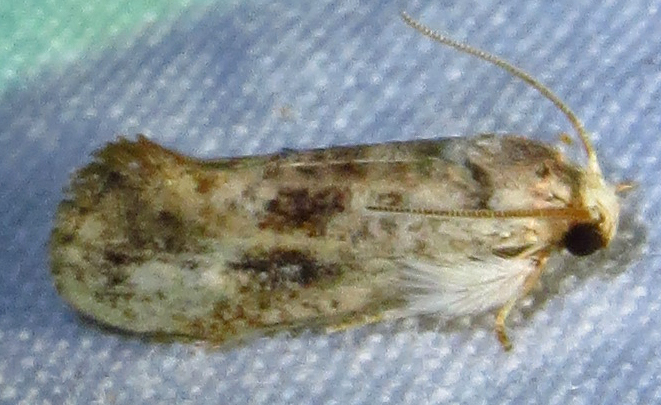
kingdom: Animalia
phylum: Arthropoda
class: Insecta
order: Lepidoptera
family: Tineidae
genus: Acrolophus
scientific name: Acrolophus mycetophagus
